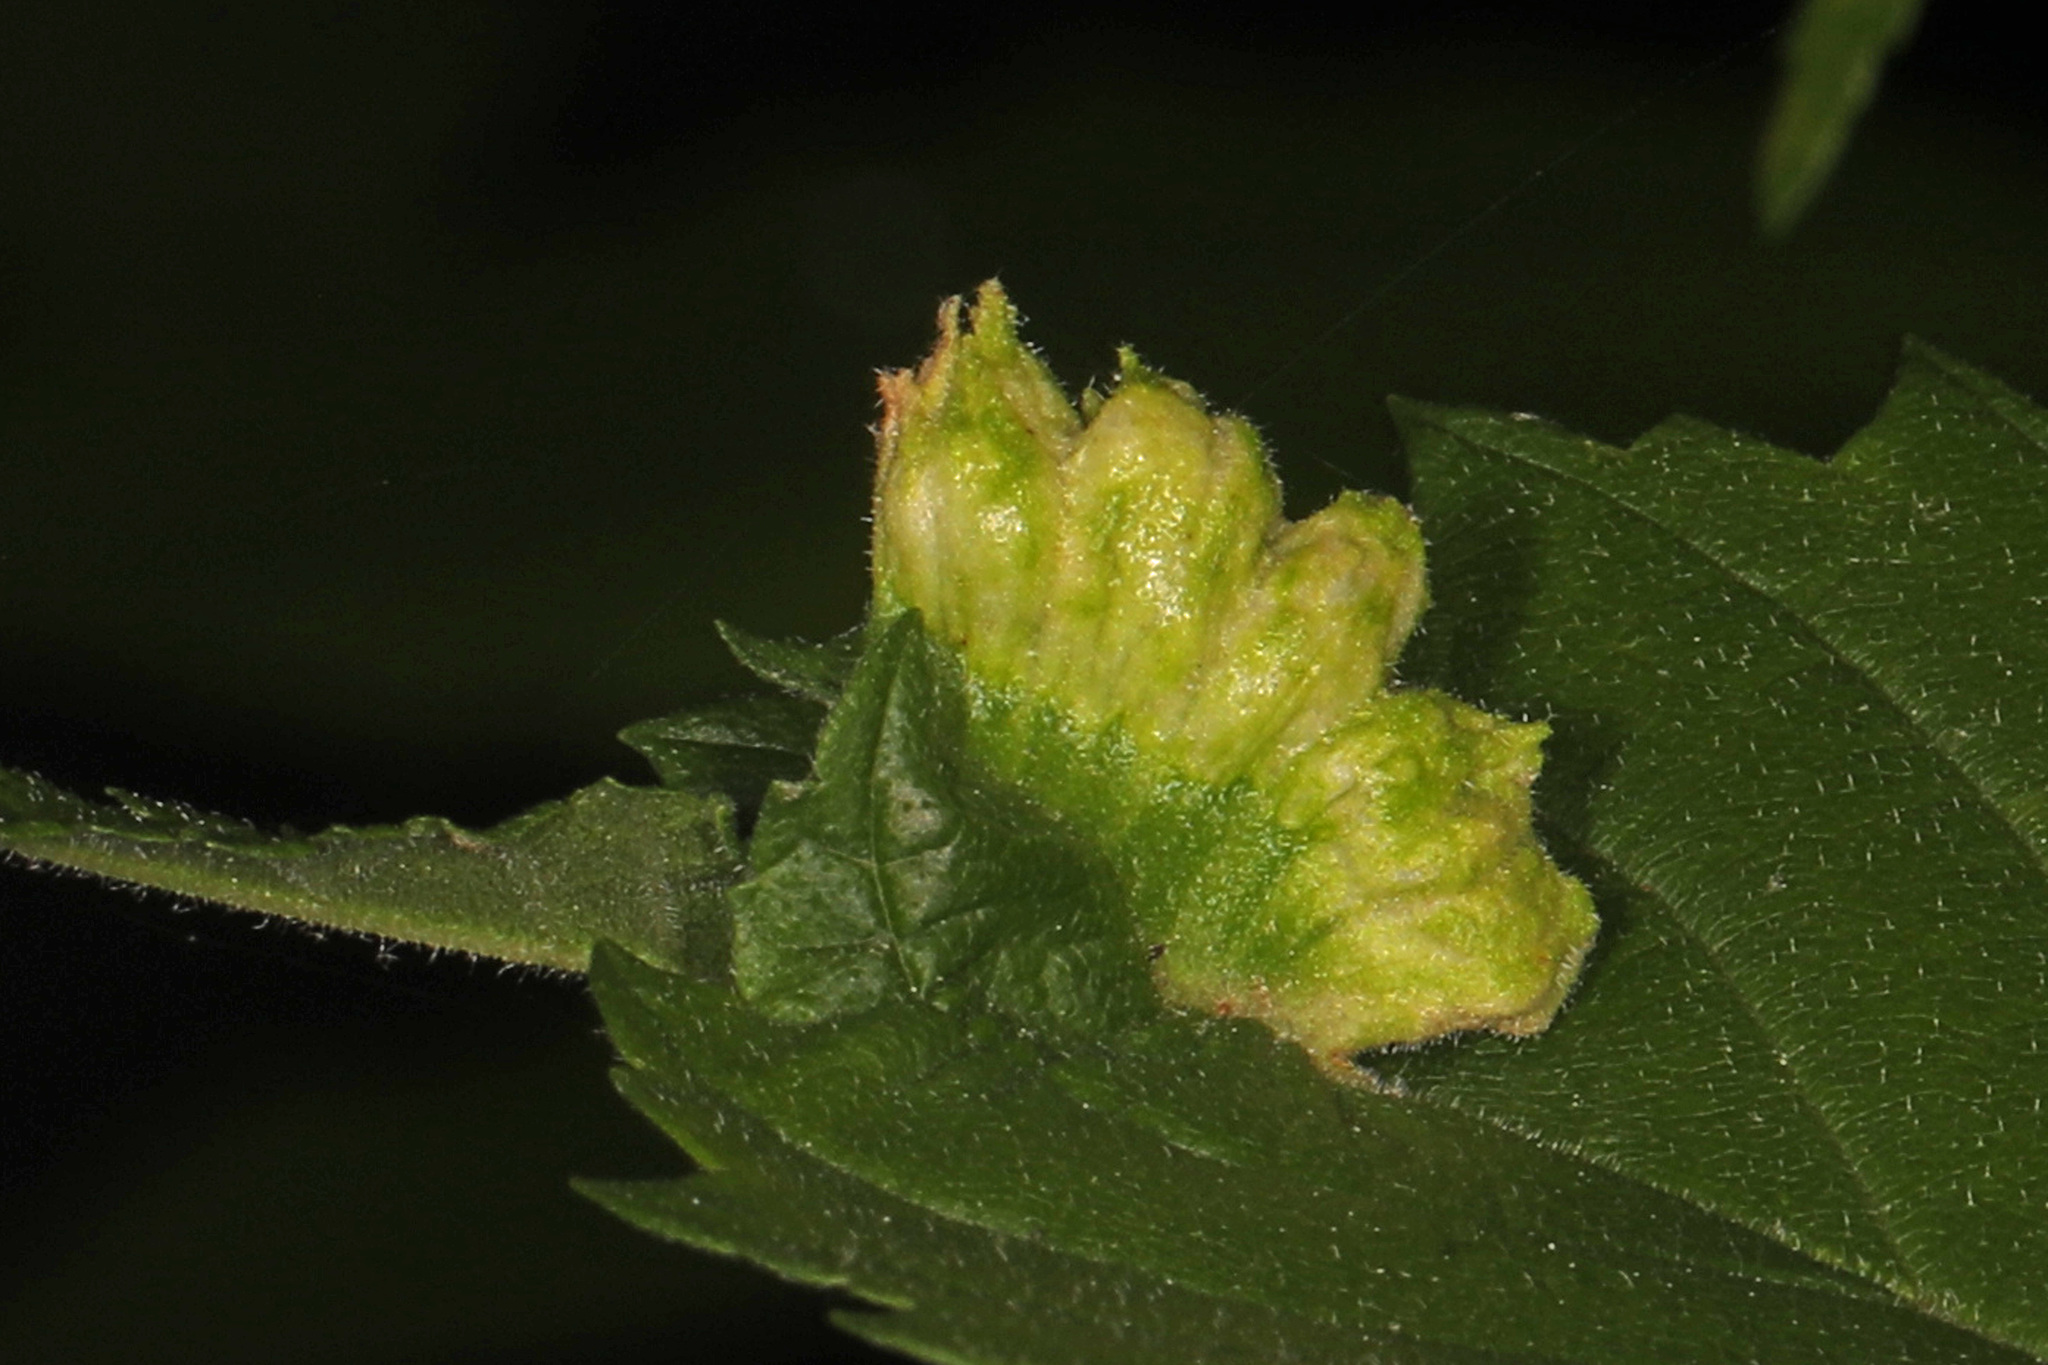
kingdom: Animalia
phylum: Arthropoda
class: Insecta
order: Hemiptera
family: Aphididae
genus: Colopha
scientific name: Colopha ulmicola
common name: Elm cockscombgall aphid
